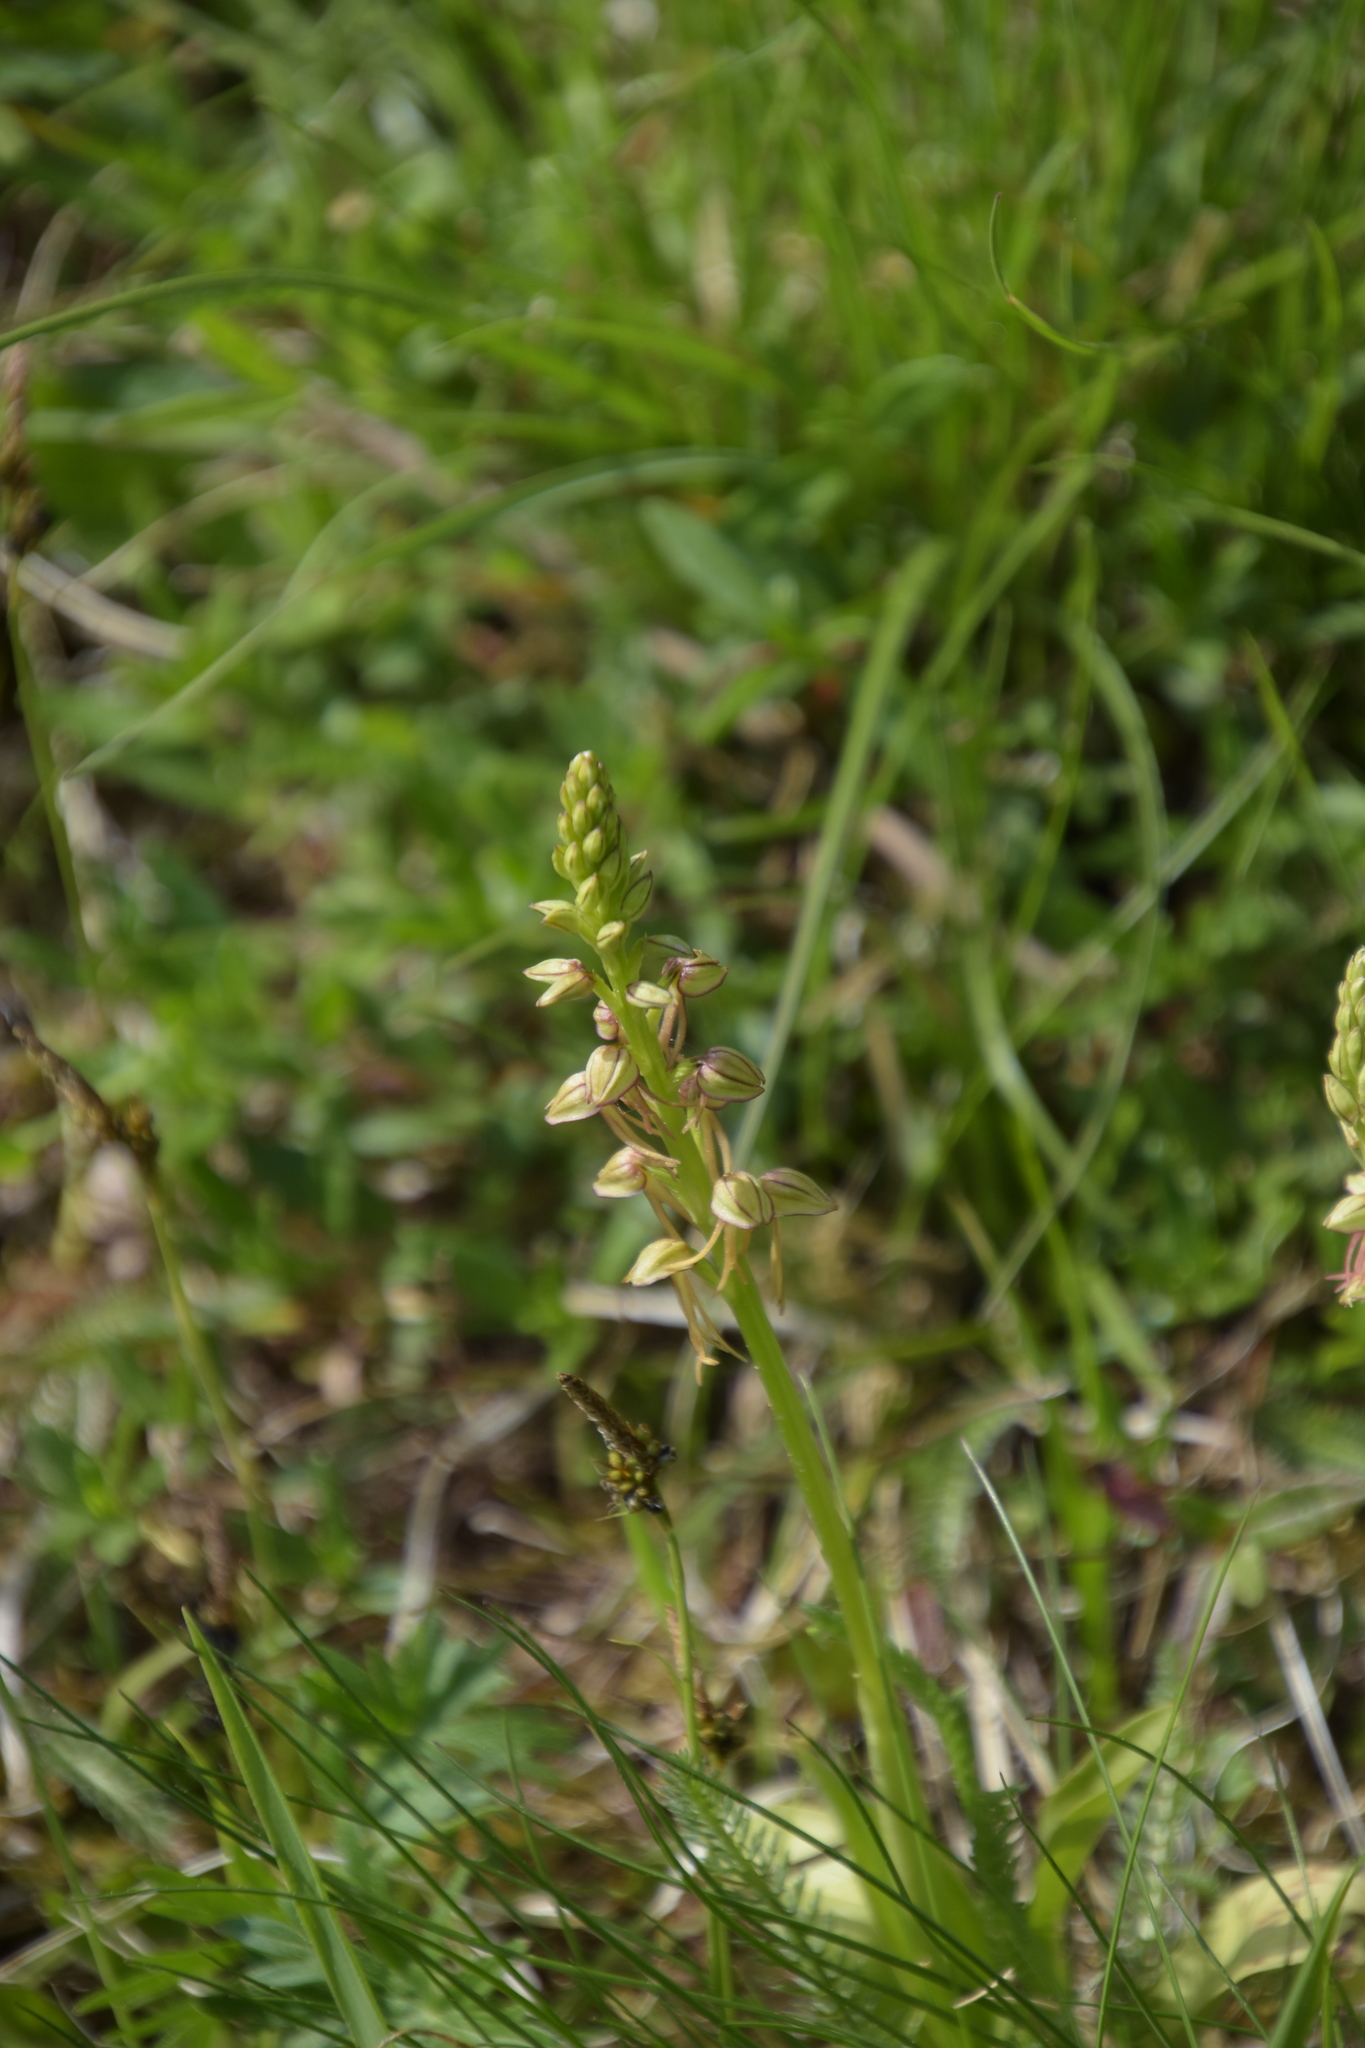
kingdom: Plantae
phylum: Tracheophyta
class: Liliopsida
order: Asparagales
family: Orchidaceae
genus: Orchis
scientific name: Orchis anthropophora
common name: Man orchid
